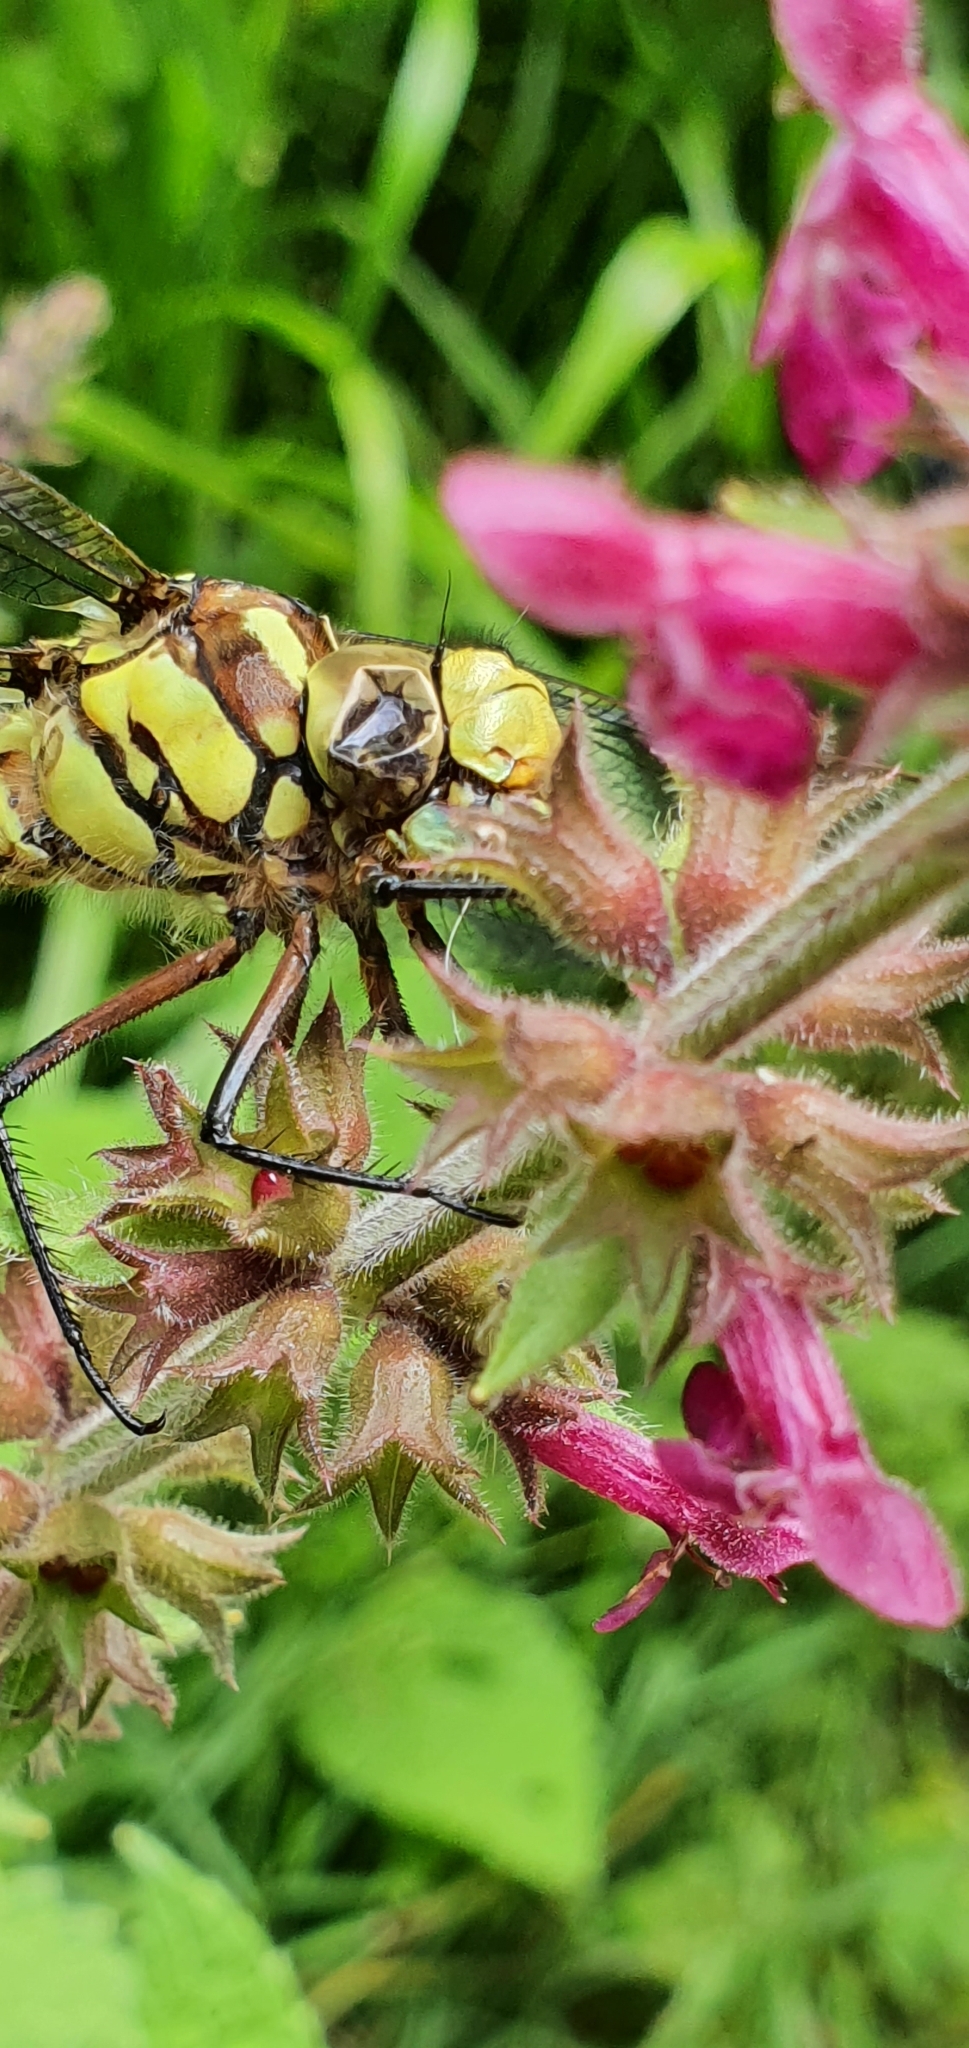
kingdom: Animalia
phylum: Arthropoda
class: Insecta
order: Odonata
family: Aeshnidae
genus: Aeshna
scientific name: Aeshna cyanea
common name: Southern hawker
